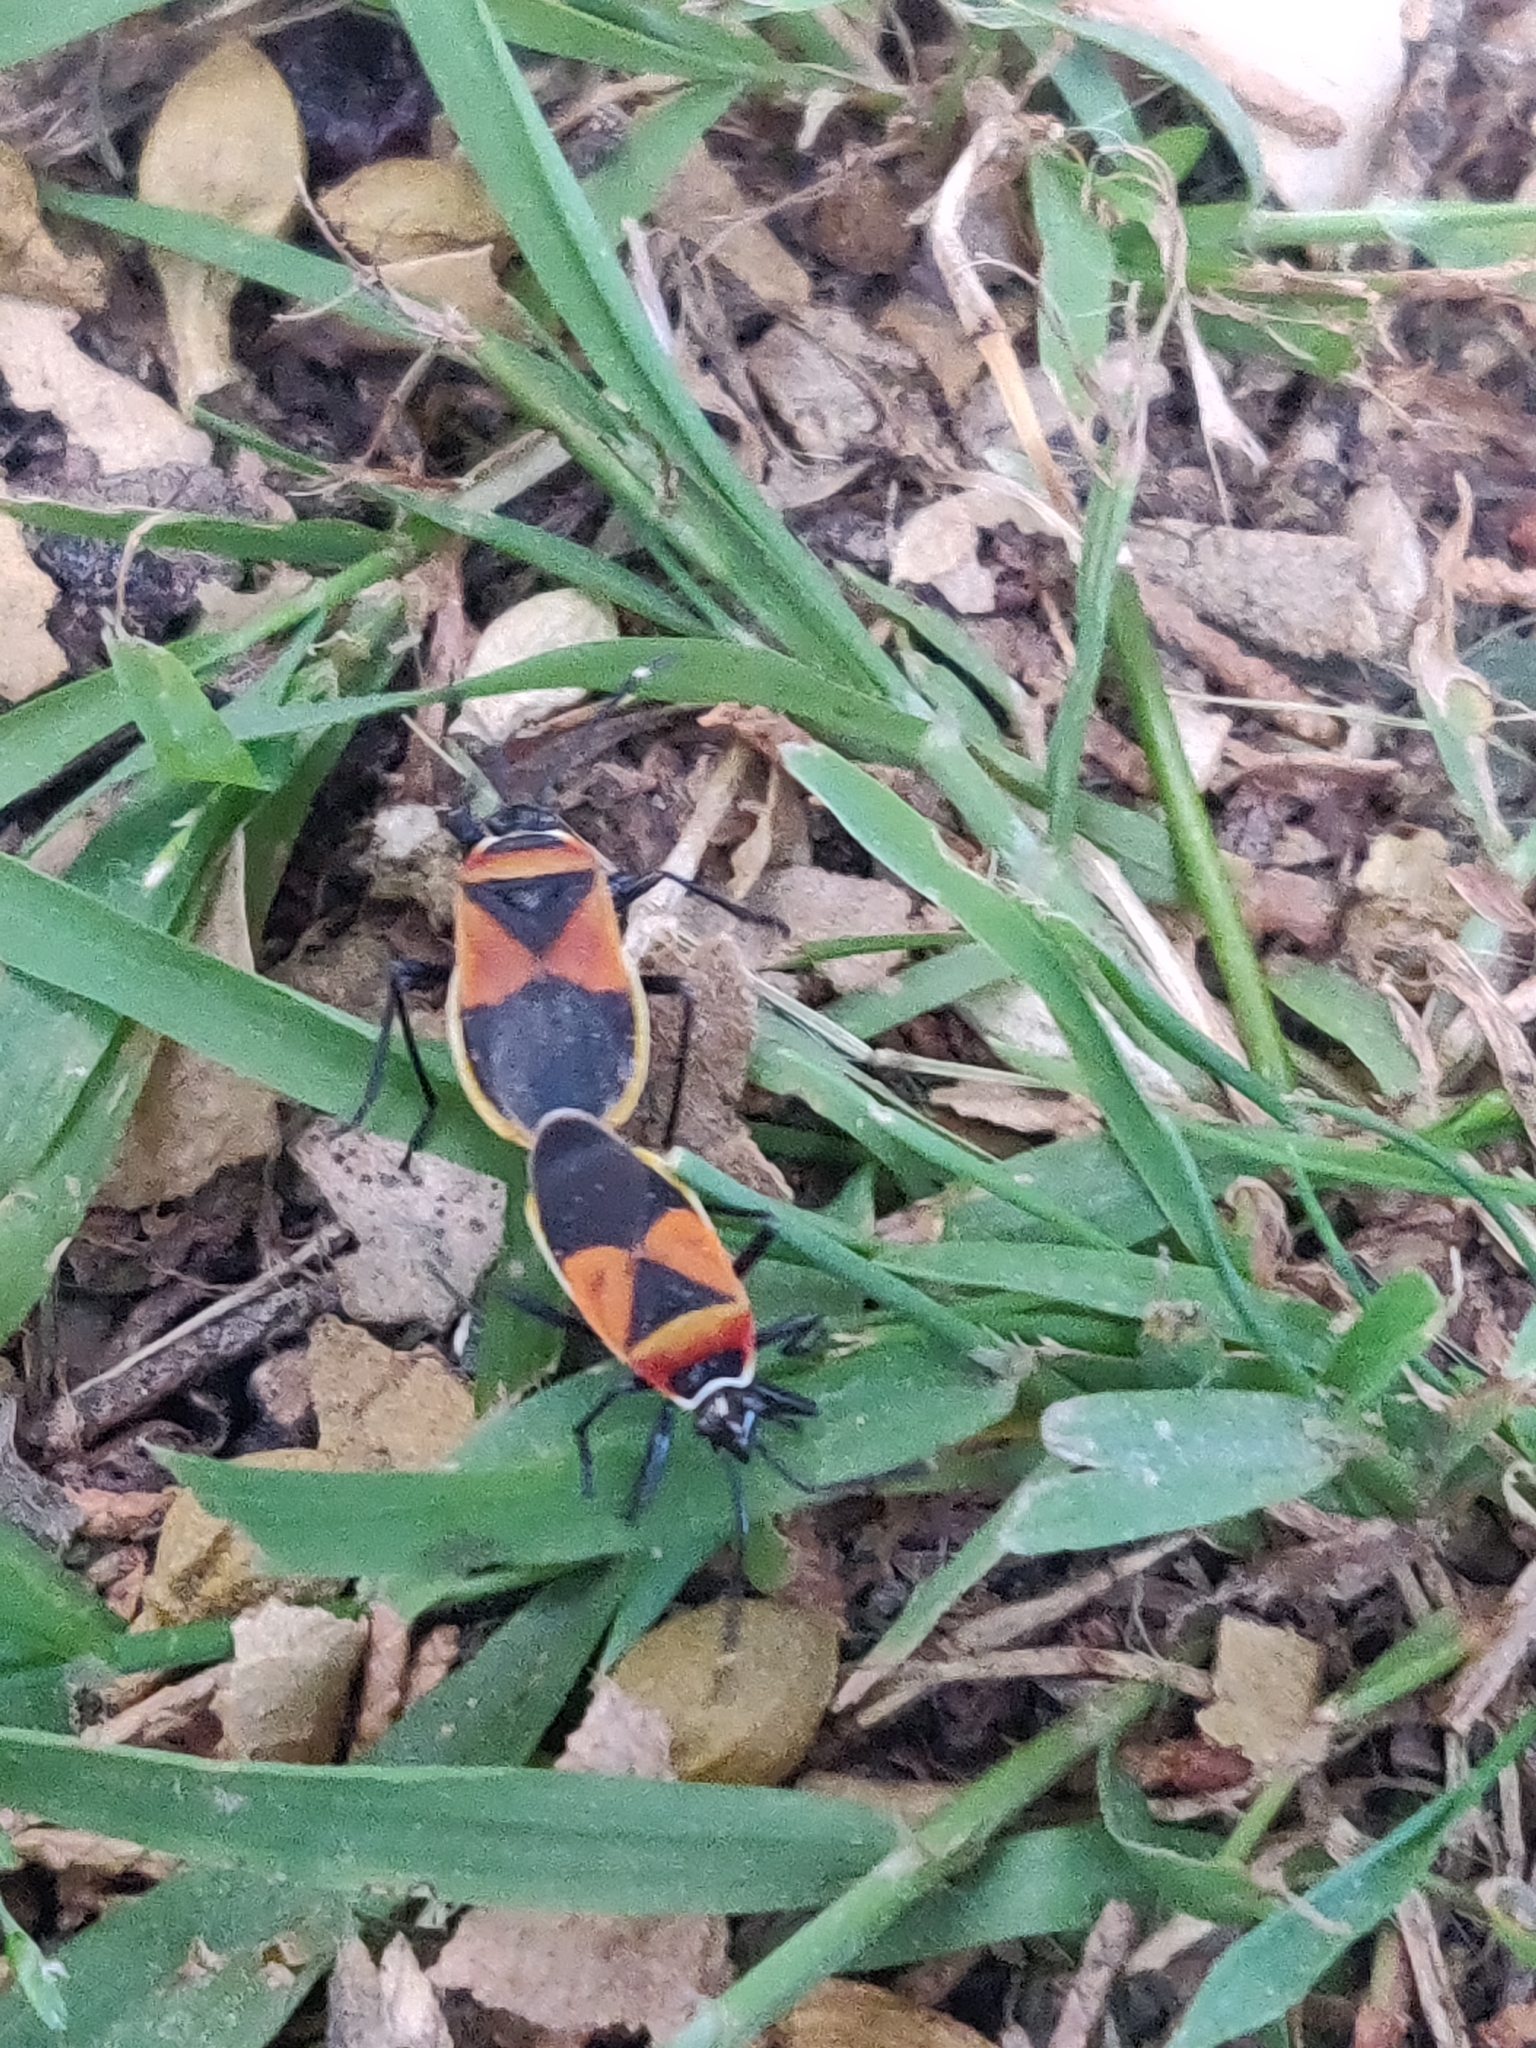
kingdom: Animalia
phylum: Arthropoda
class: Insecta
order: Hemiptera
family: Pyrrhocoridae
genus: Dindymus
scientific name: Dindymus
